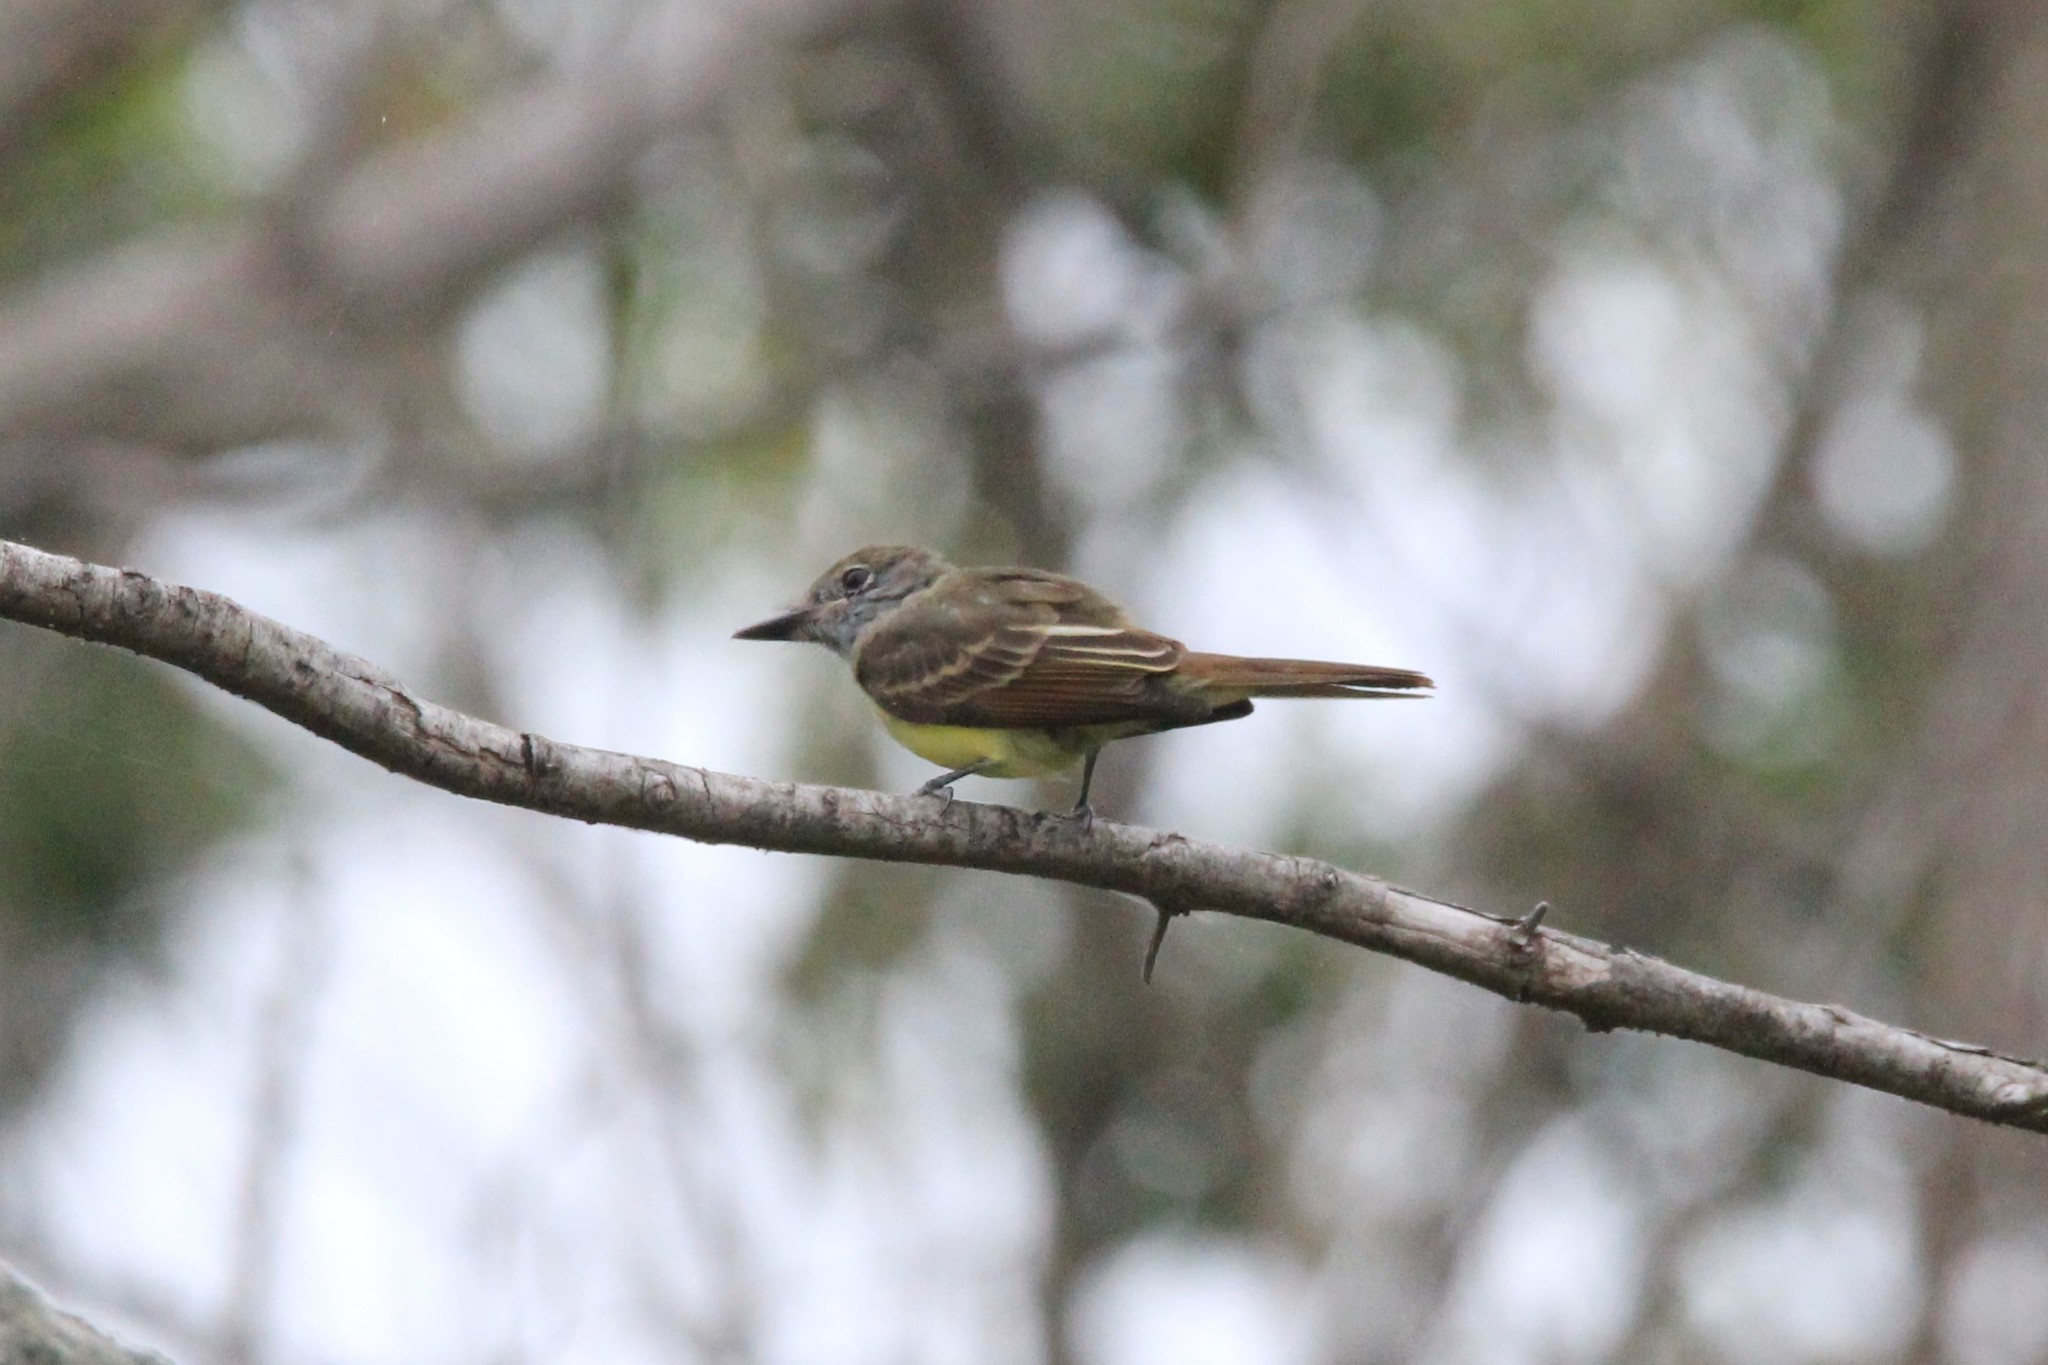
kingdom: Animalia
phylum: Chordata
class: Aves
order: Passeriformes
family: Tyrannidae
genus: Myiarchus
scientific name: Myiarchus crinitus
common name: Great crested flycatcher
